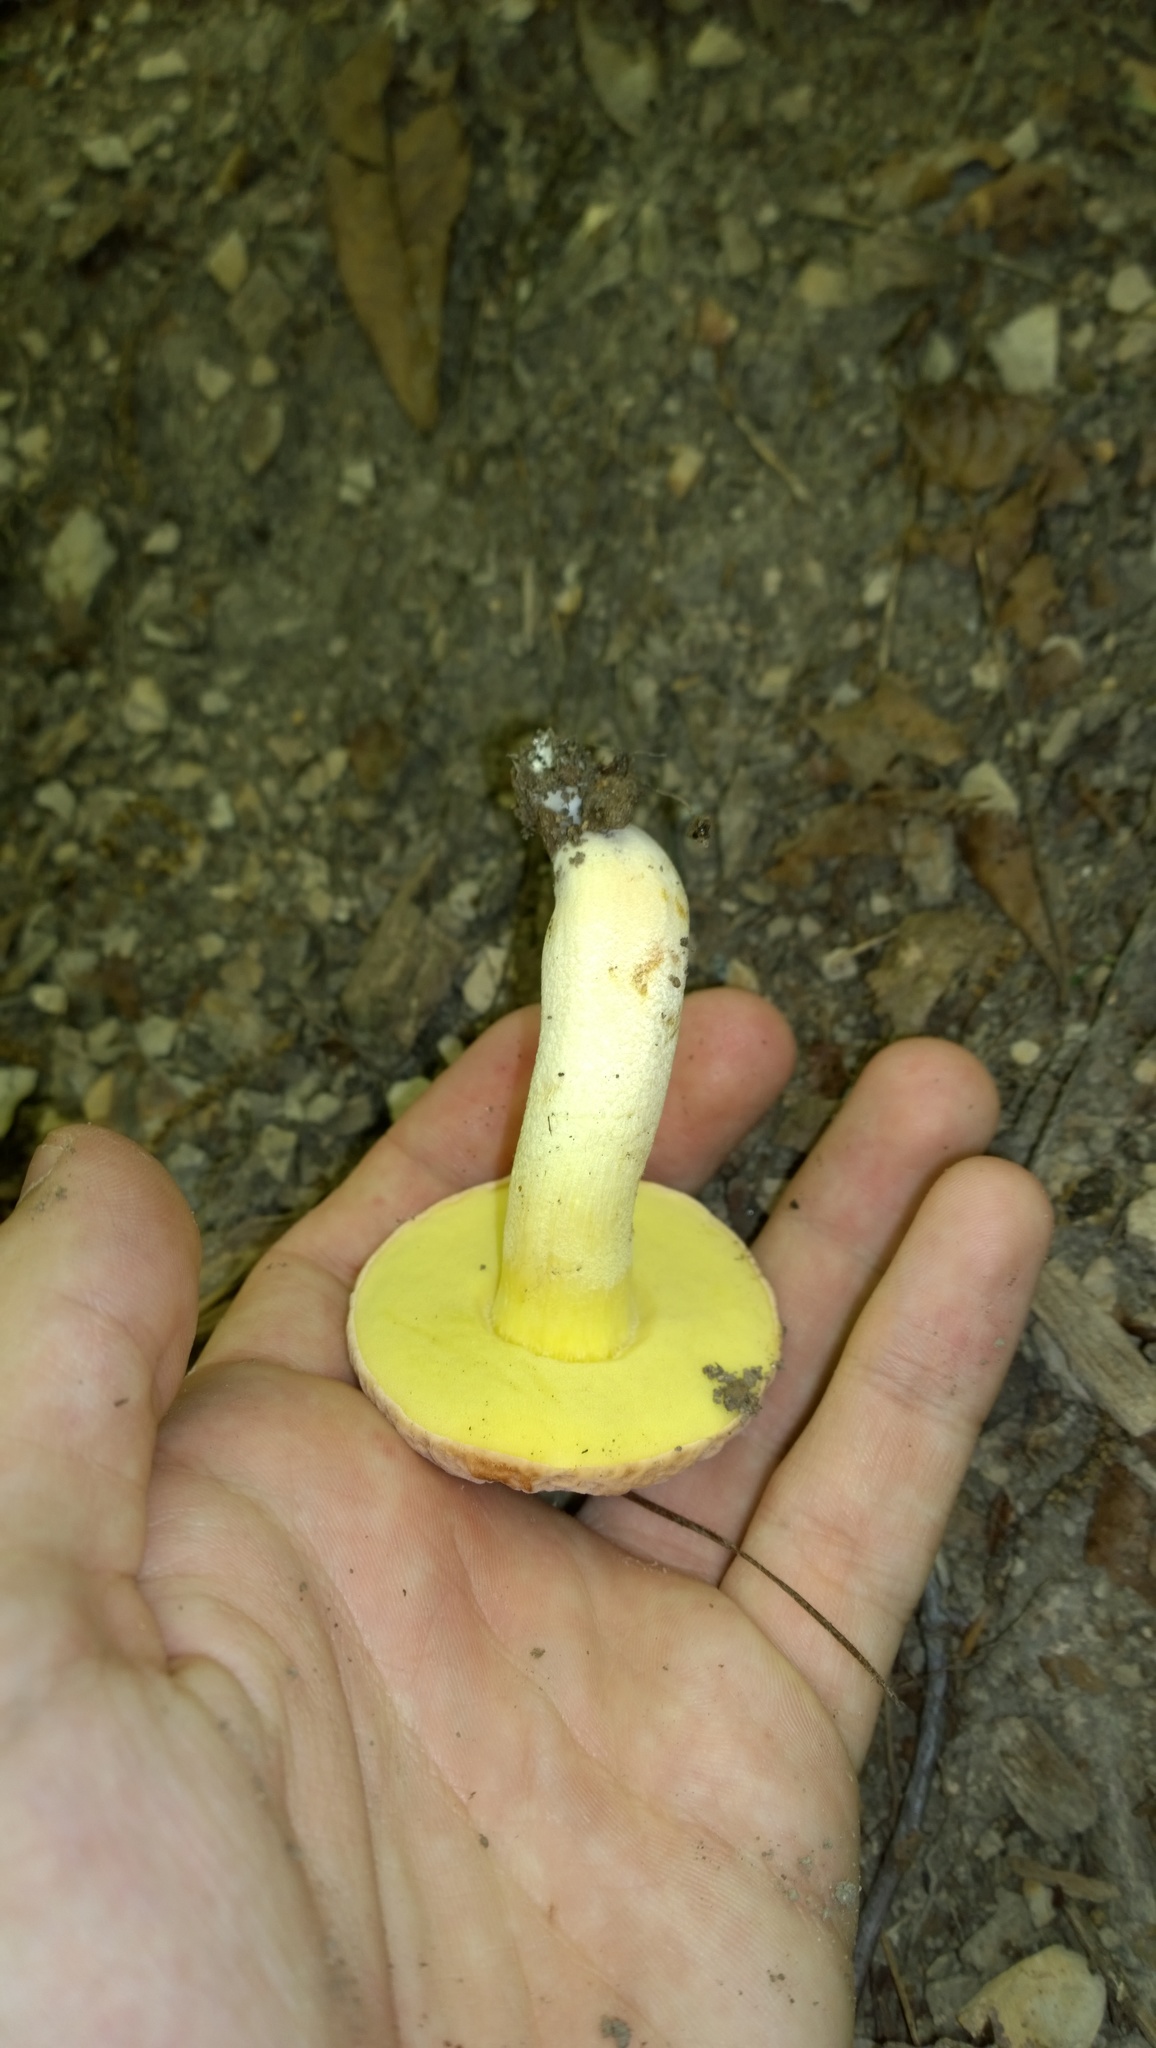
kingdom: Fungi
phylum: Basidiomycota
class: Agaricomycetes
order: Boletales
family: Boletaceae
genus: Hemileccinum
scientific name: Hemileccinum hortonii
